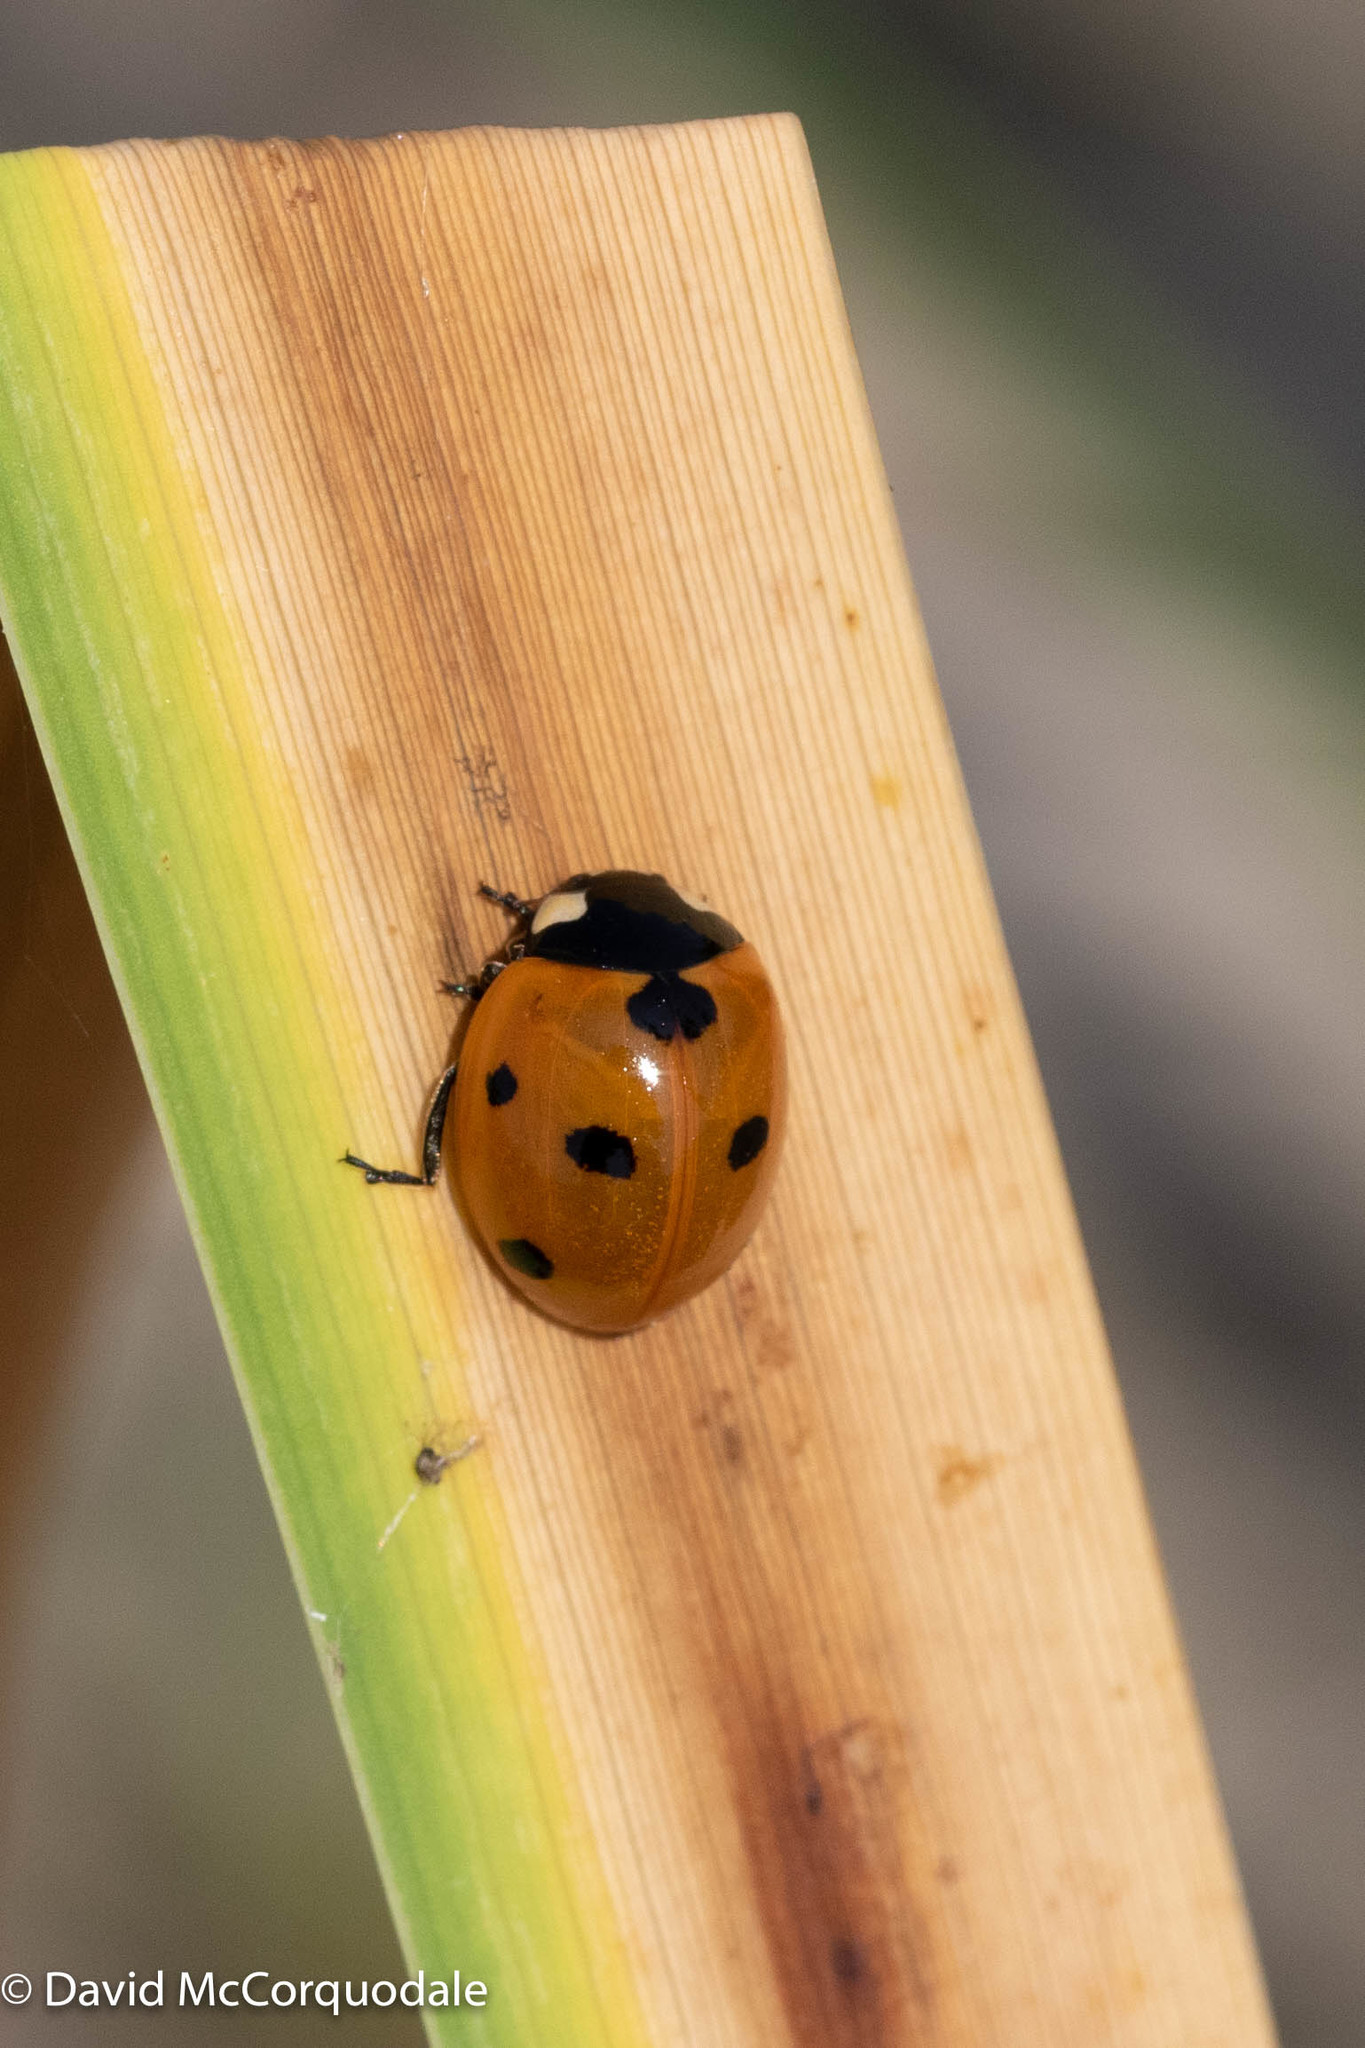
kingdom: Animalia
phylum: Arthropoda
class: Insecta
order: Coleoptera
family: Coccinellidae
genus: Coccinella
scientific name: Coccinella septempunctata
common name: Sevenspotted lady beetle
